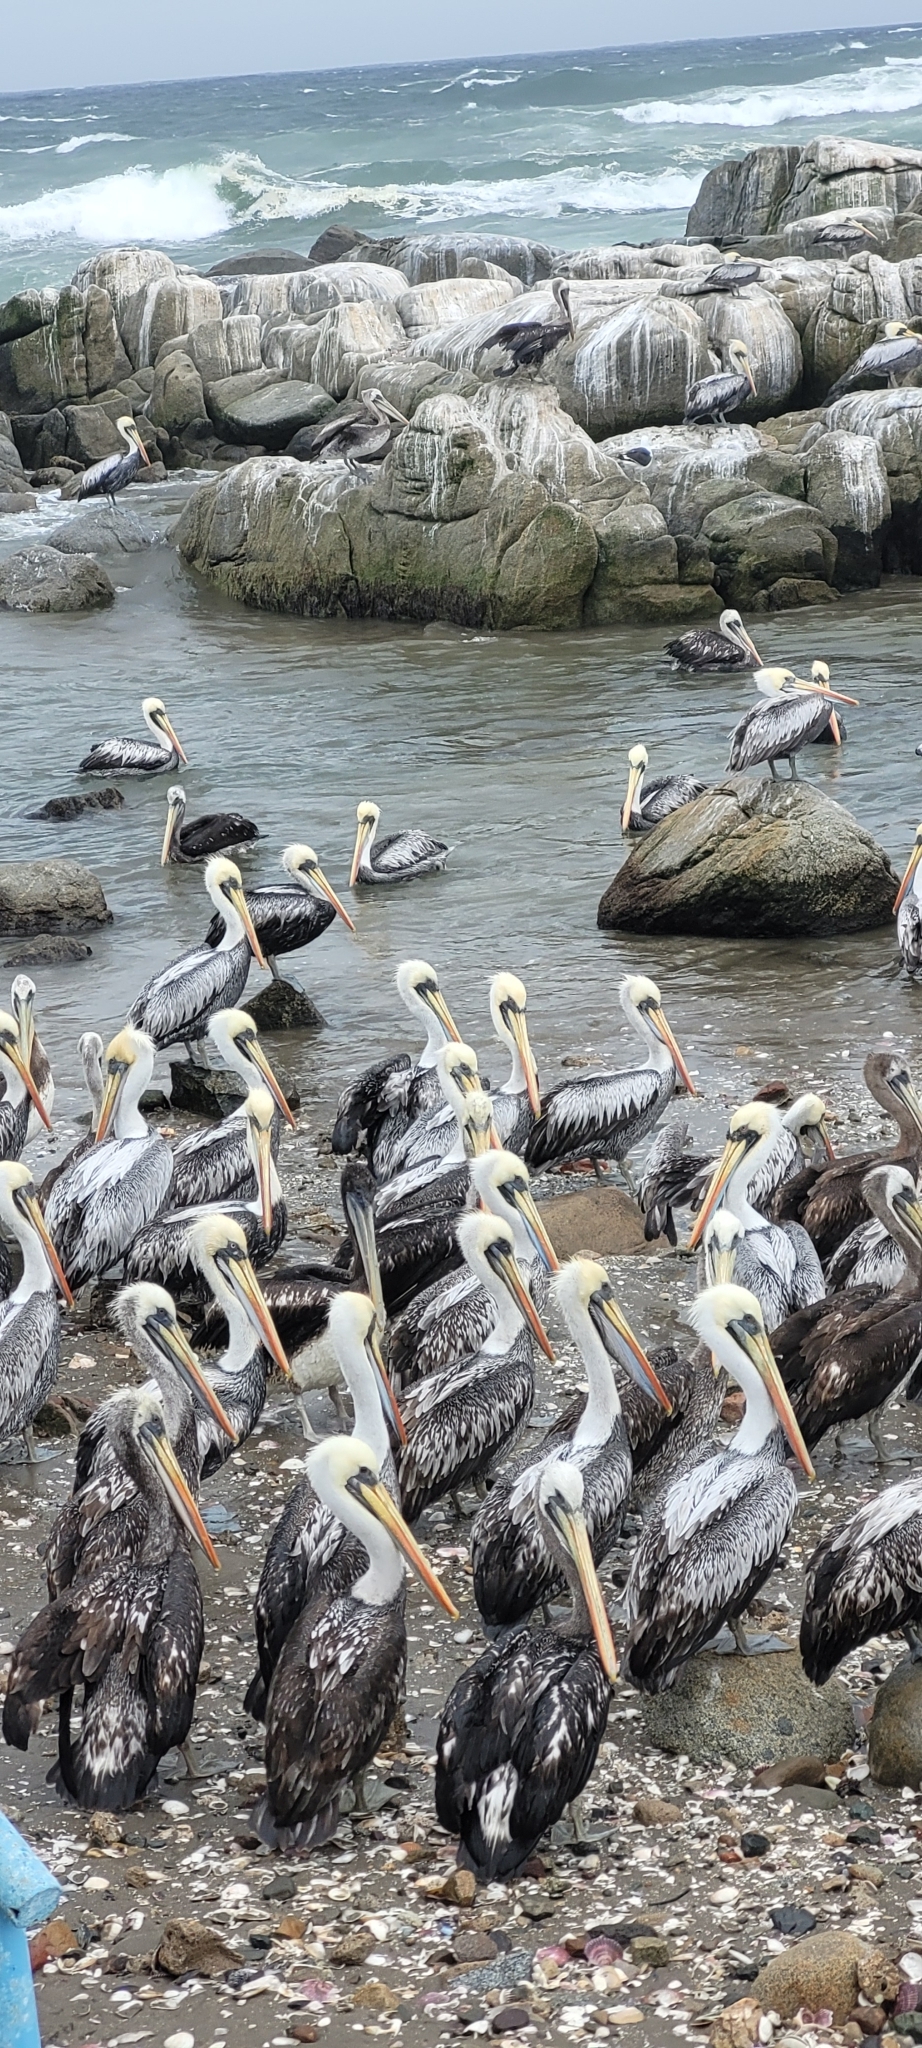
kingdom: Animalia
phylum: Chordata
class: Aves
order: Pelecaniformes
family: Pelecanidae
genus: Pelecanus
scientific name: Pelecanus thagus
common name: Peruvian pelican
